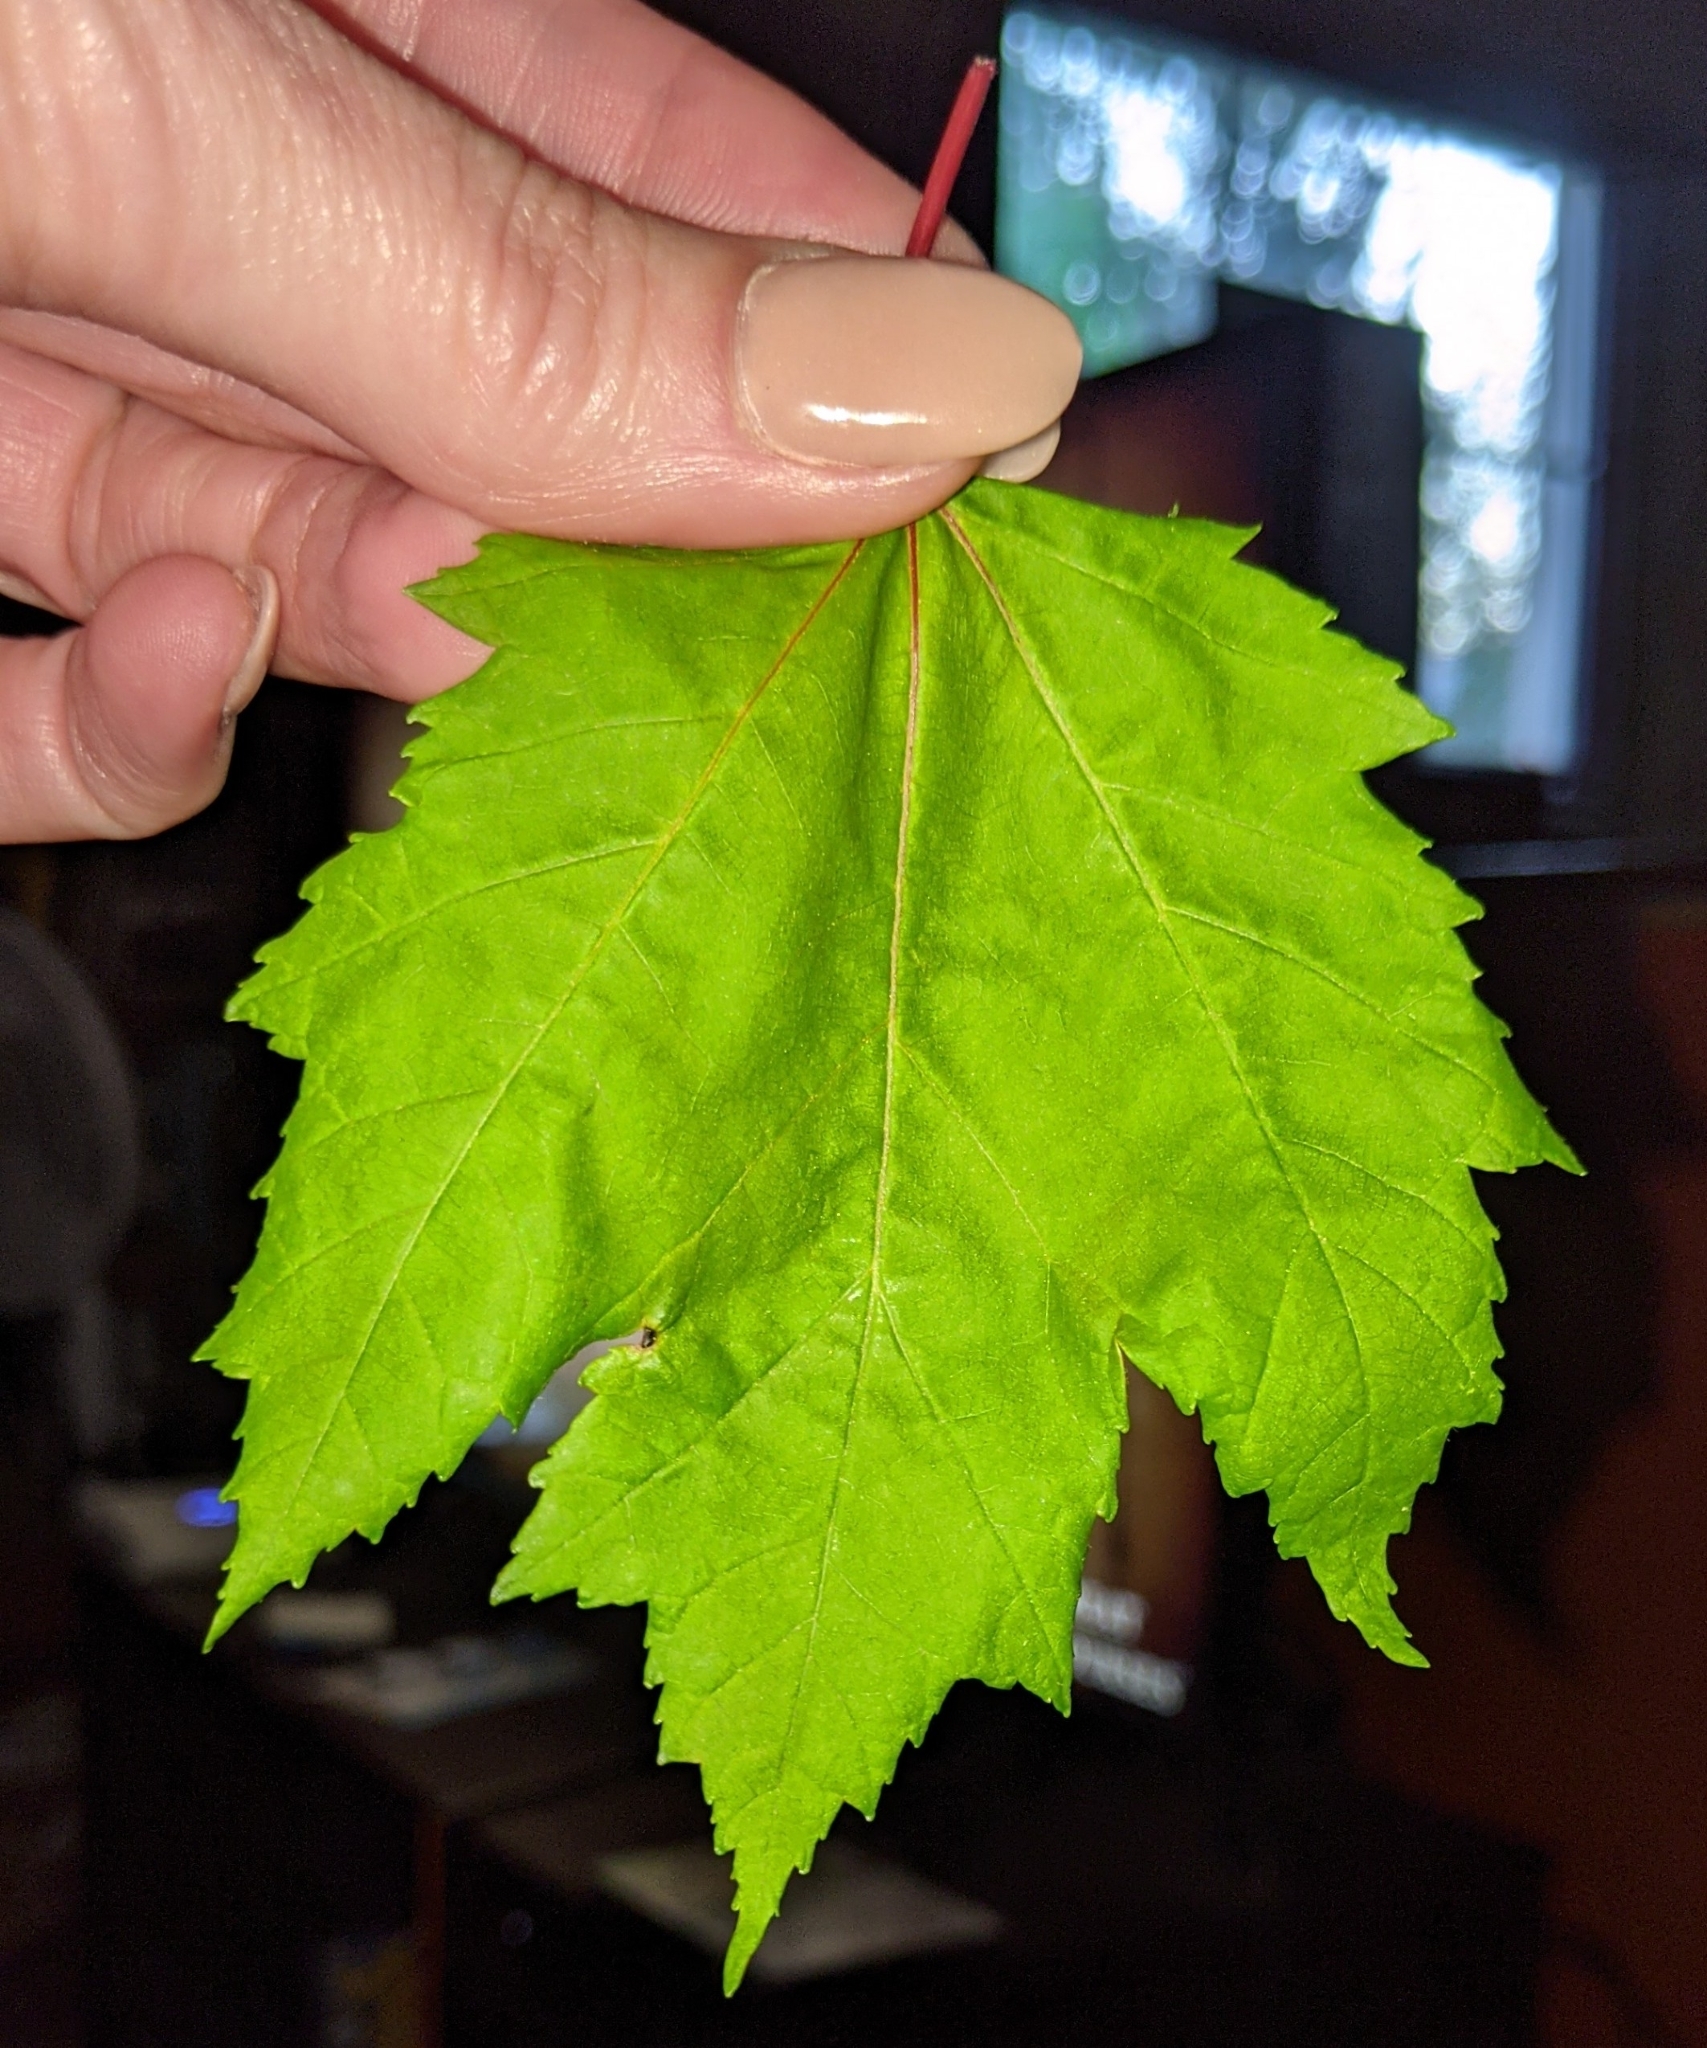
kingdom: Plantae
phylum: Tracheophyta
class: Magnoliopsida
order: Sapindales
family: Sapindaceae
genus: Acer
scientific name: Acer rubrum
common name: Red maple
